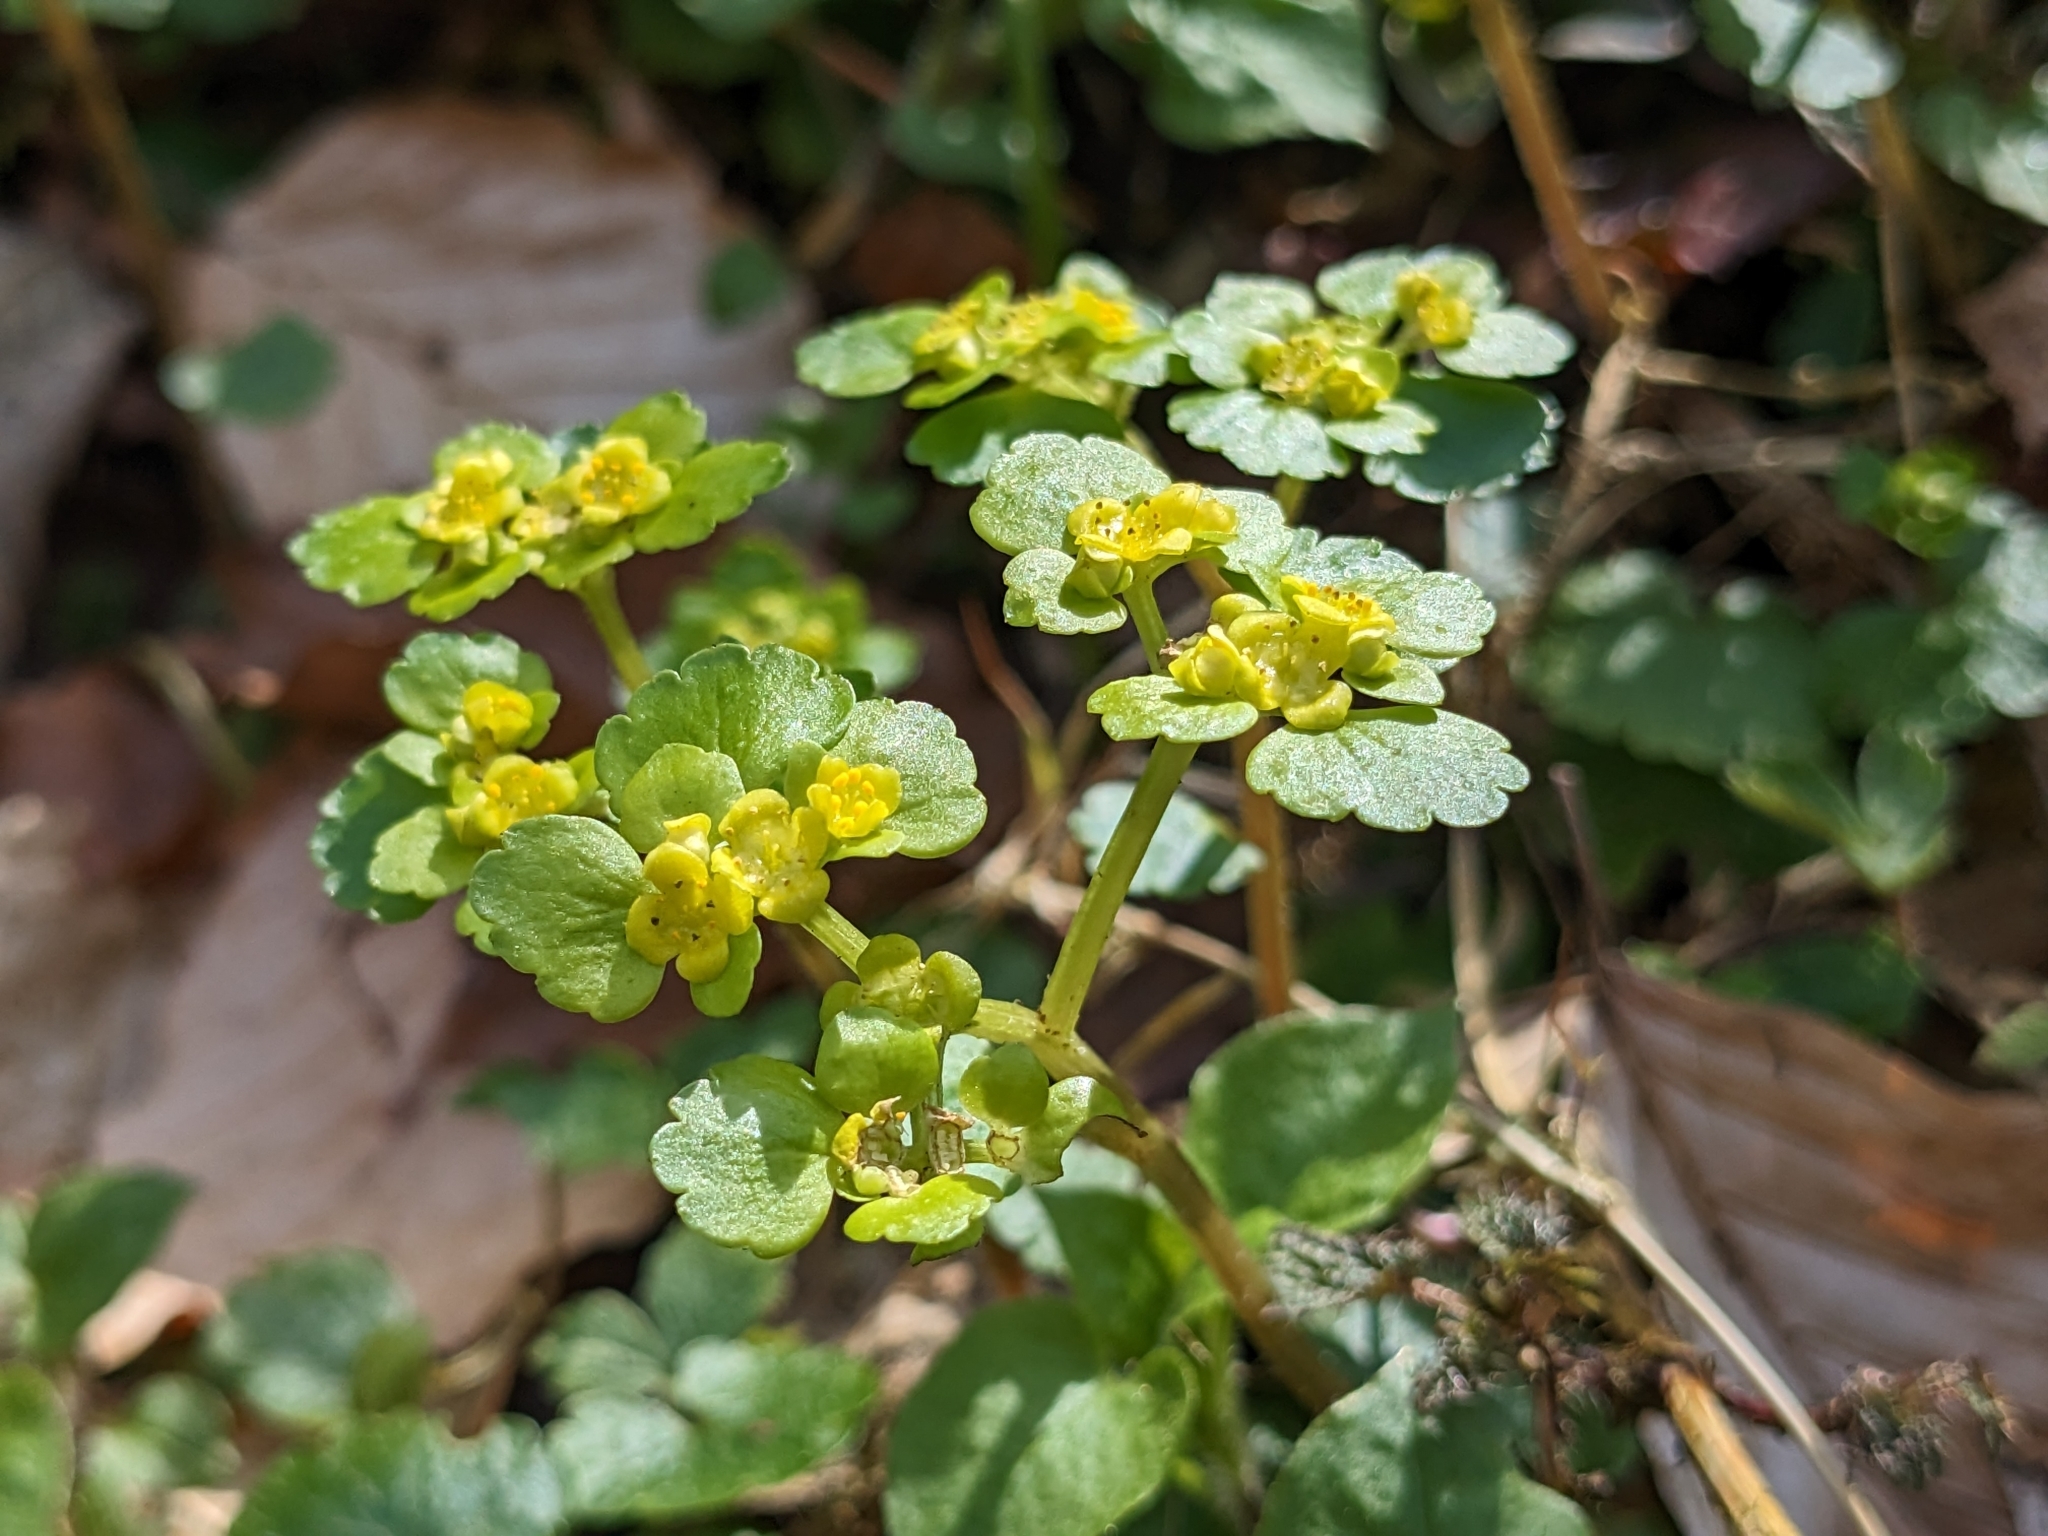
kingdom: Plantae
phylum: Tracheophyta
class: Magnoliopsida
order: Saxifragales
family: Saxifragaceae
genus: Chrysosplenium
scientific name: Chrysosplenium alternifolium
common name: Alternate-leaved golden-saxifrage
